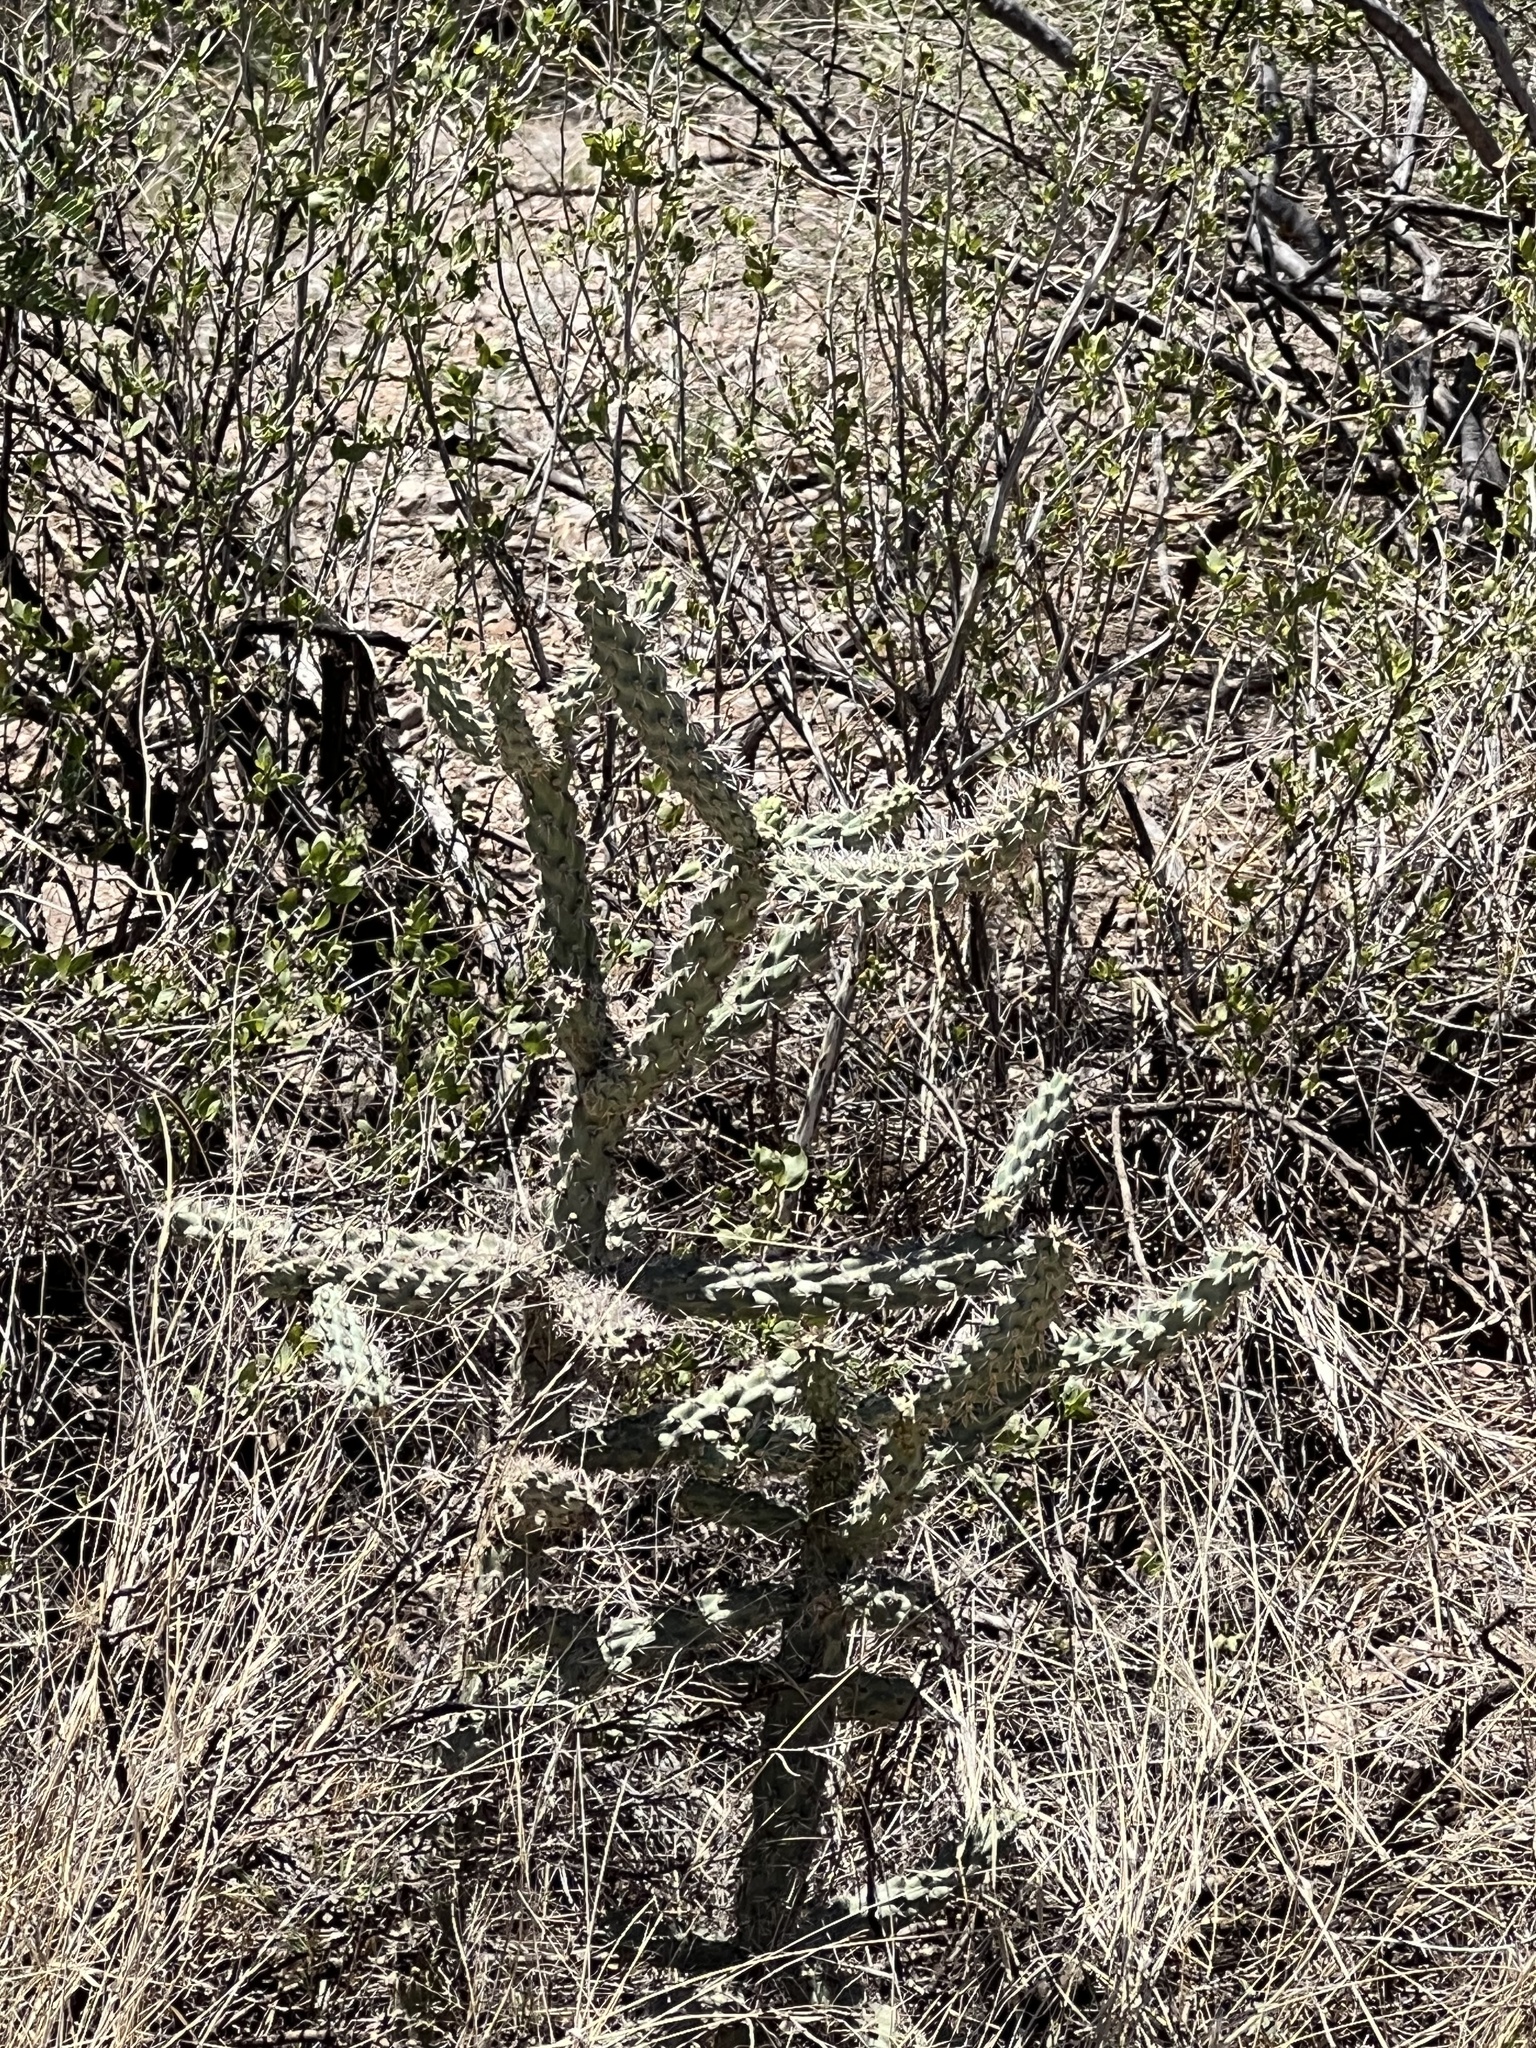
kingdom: Plantae
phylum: Tracheophyta
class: Magnoliopsida
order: Caryophyllales
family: Cactaceae
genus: Cylindropuntia
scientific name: Cylindropuntia imbricata
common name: Candelabrum cactus
